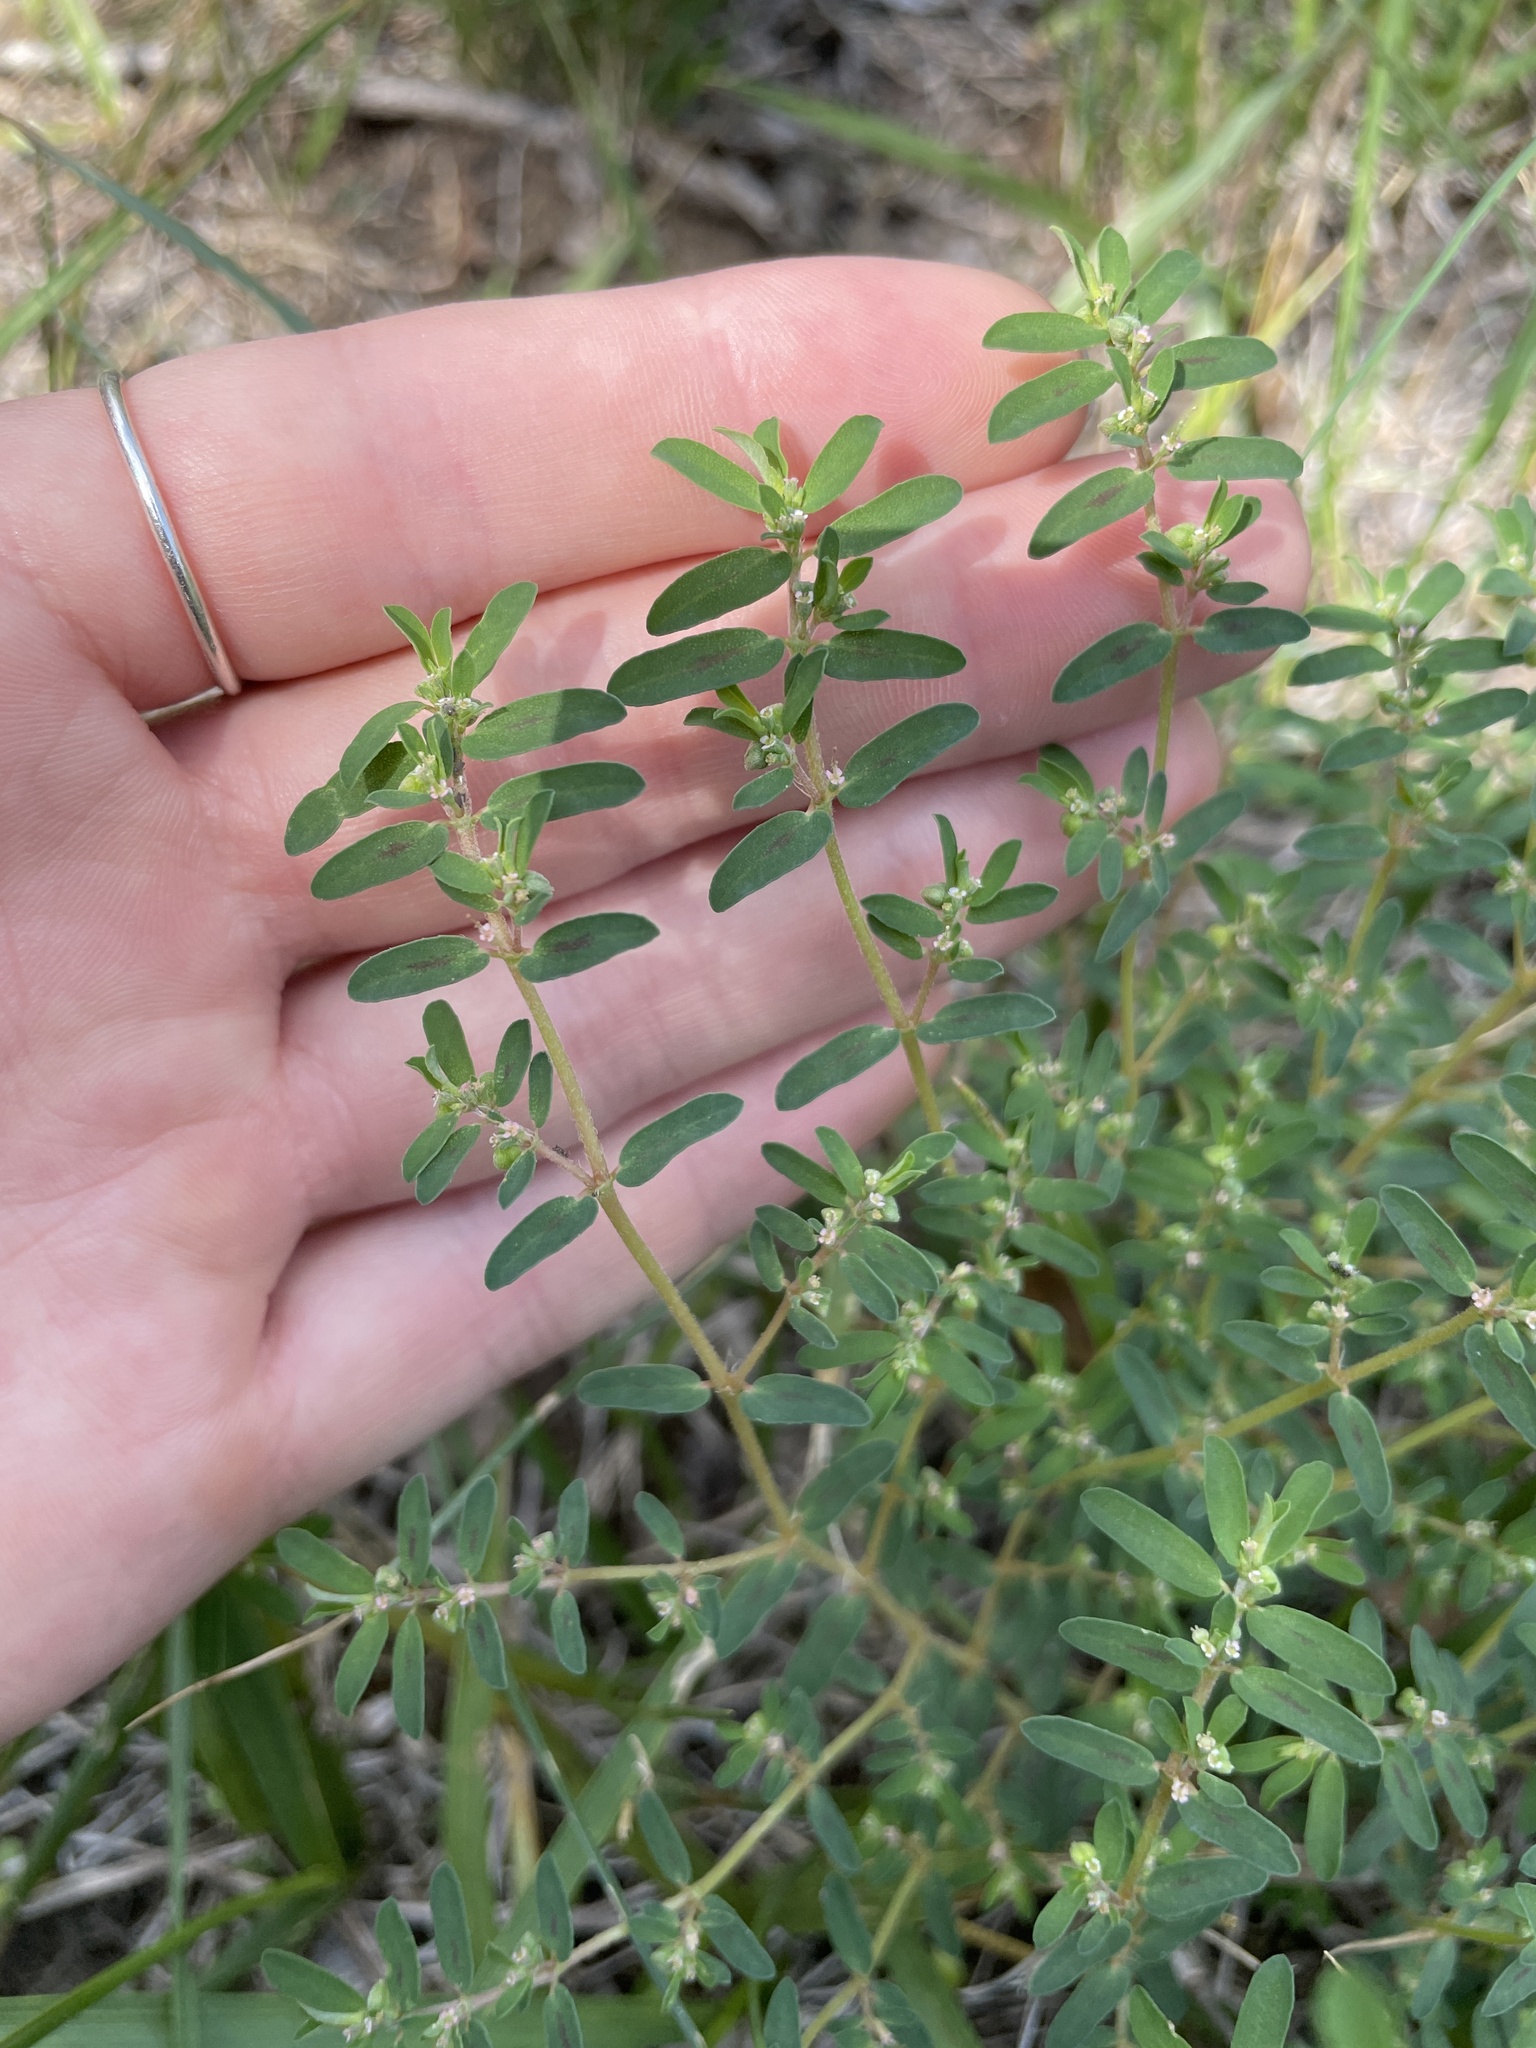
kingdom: Plantae
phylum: Tracheophyta
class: Magnoliopsida
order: Malpighiales
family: Euphorbiaceae
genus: Euphorbia
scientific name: Euphorbia maculata
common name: Spotted spurge
